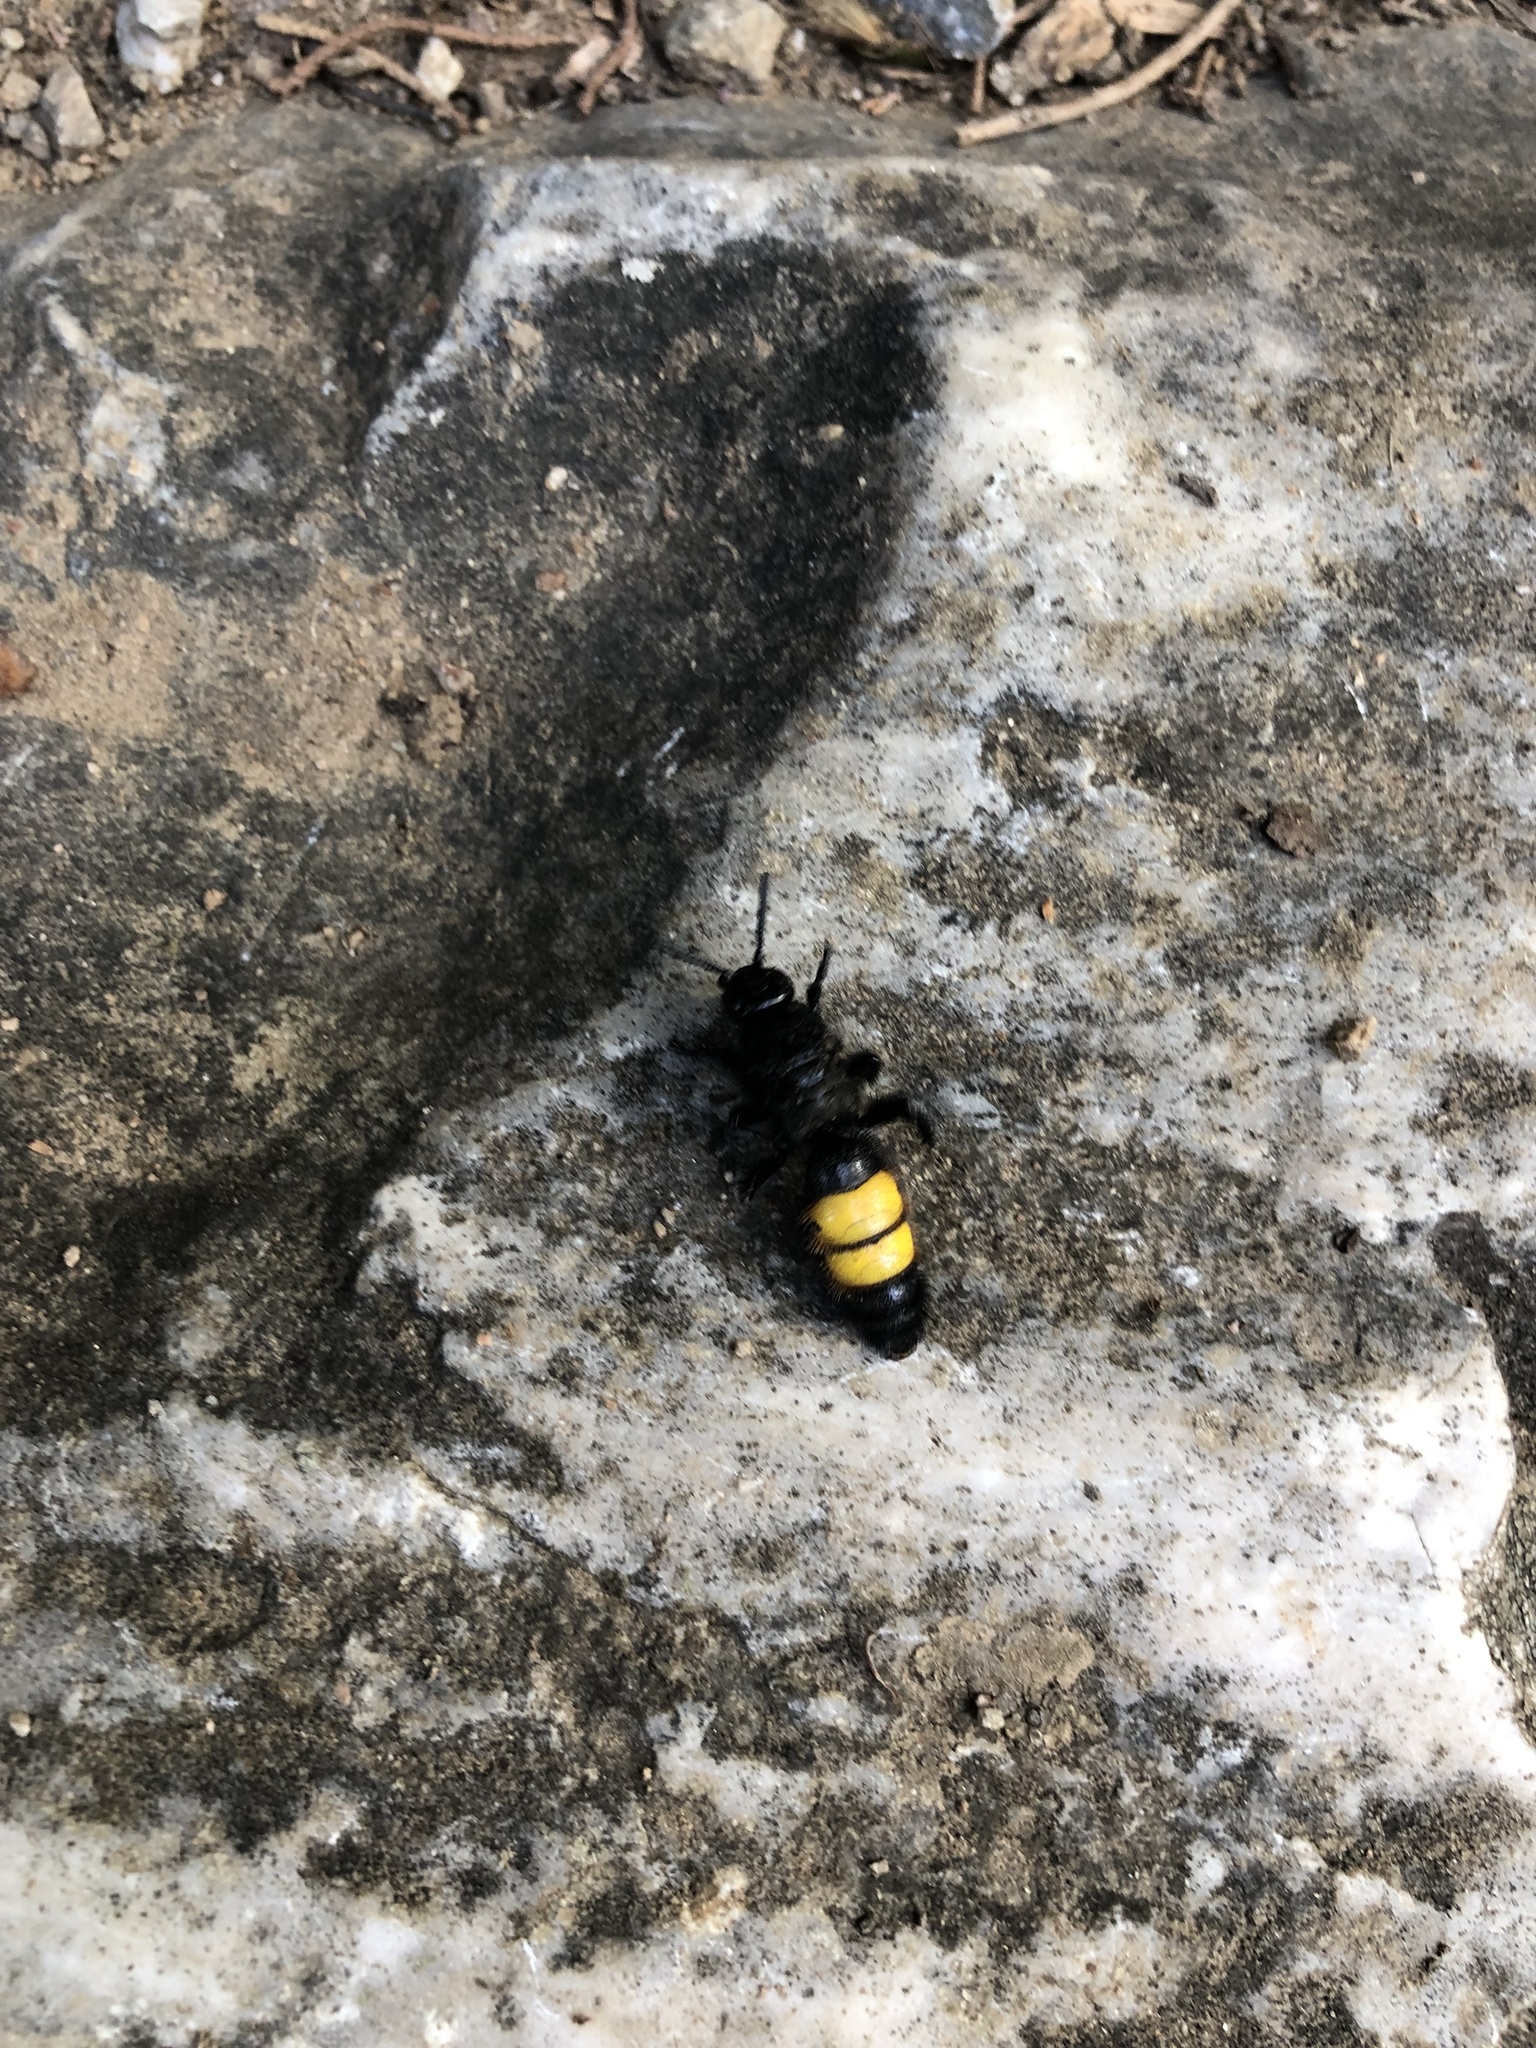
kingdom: Animalia
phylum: Arthropoda
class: Insecta
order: Hymenoptera
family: Scoliidae
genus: Scolia
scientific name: Scolia hirta
